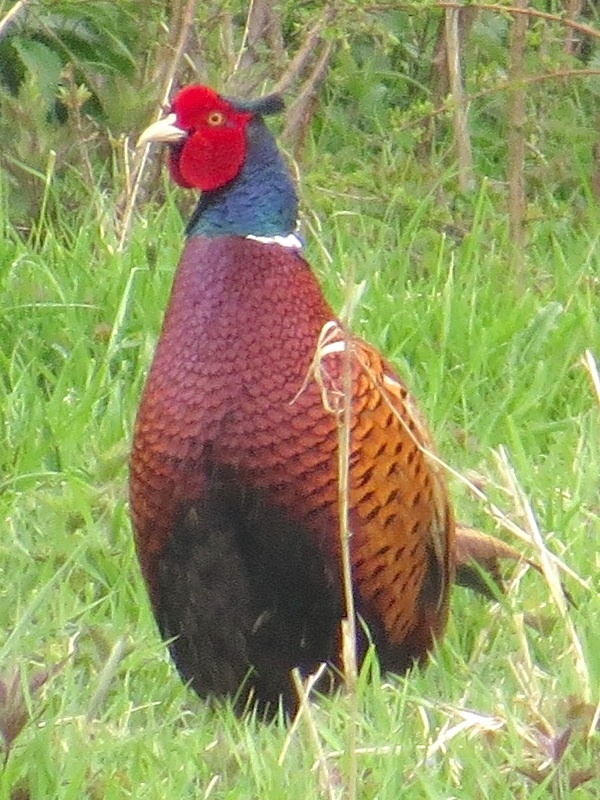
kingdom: Animalia
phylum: Chordata
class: Aves
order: Galliformes
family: Phasianidae
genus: Phasianus
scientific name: Phasianus colchicus
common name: Common pheasant
